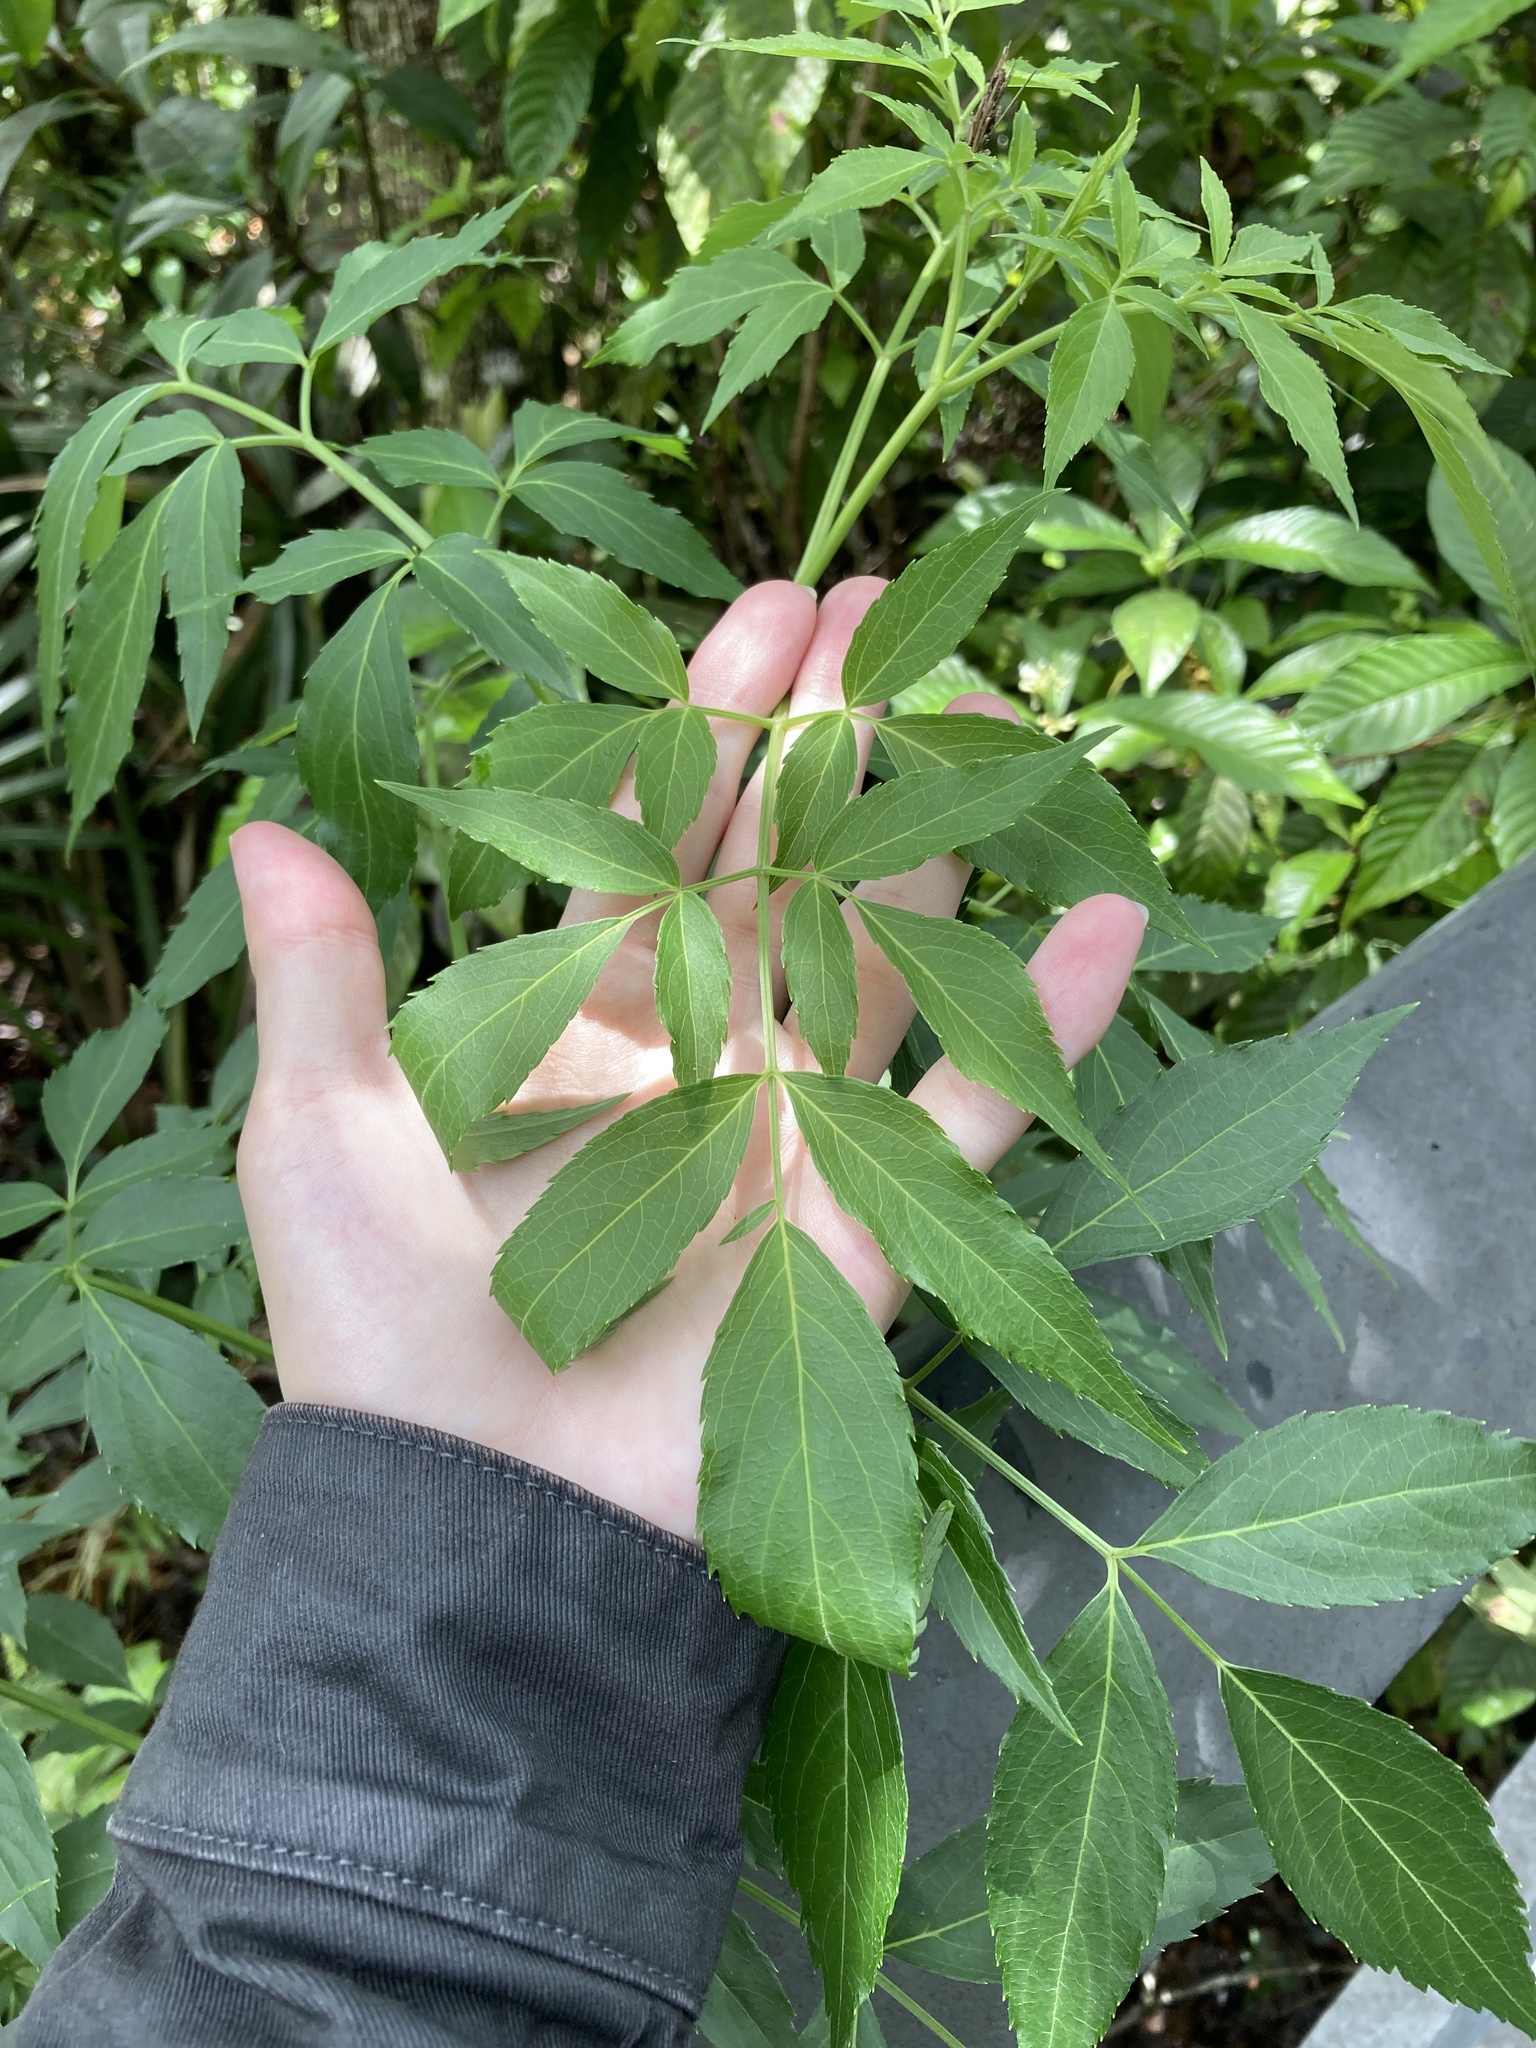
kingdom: Plantae
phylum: Tracheophyta
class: Magnoliopsida
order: Dipsacales
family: Viburnaceae
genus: Sambucus
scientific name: Sambucus canadensis
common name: American elder
